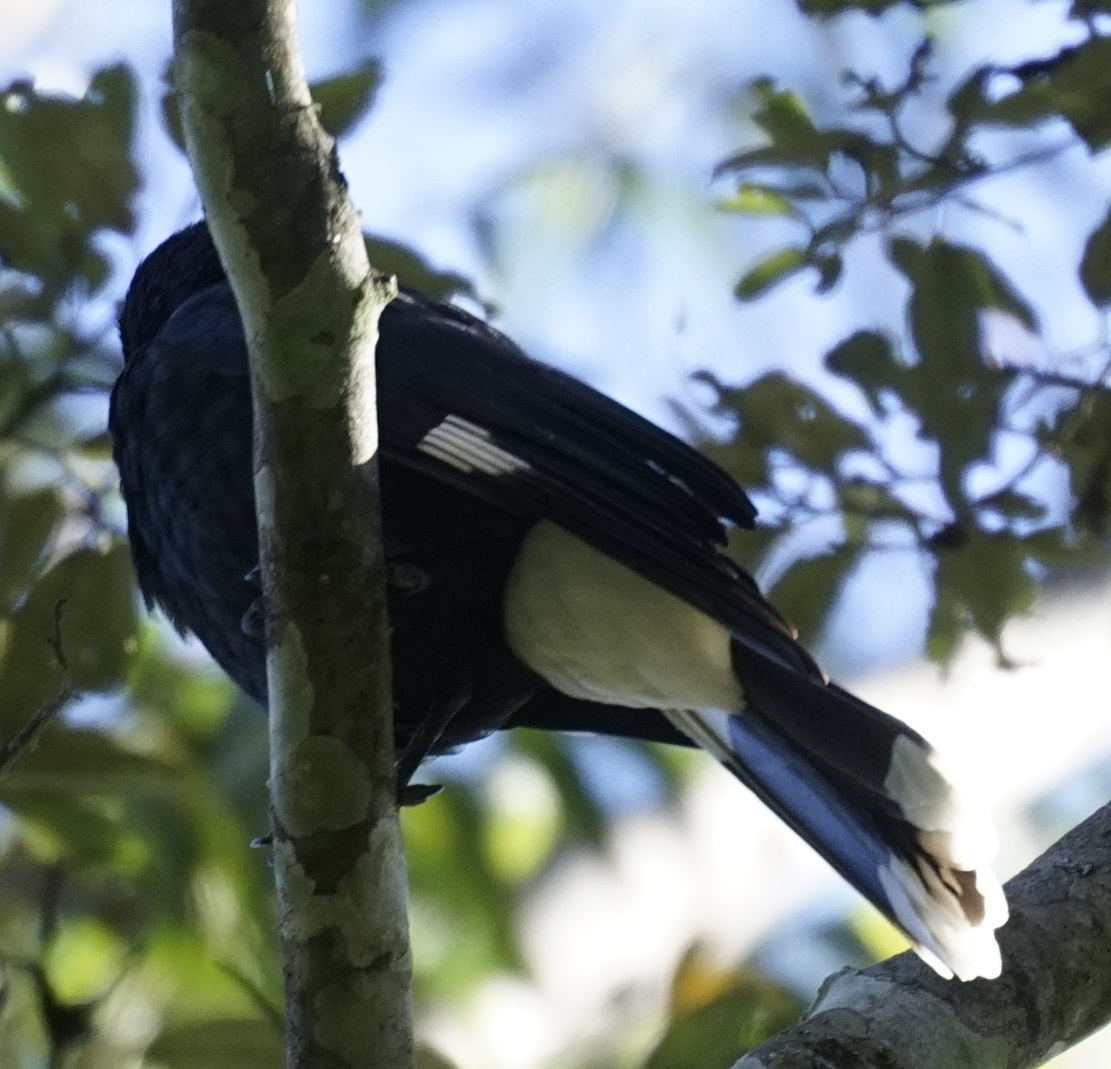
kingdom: Animalia
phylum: Chordata
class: Aves
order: Passeriformes
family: Cracticidae
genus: Strepera
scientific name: Strepera graculina
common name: Pied currawong
